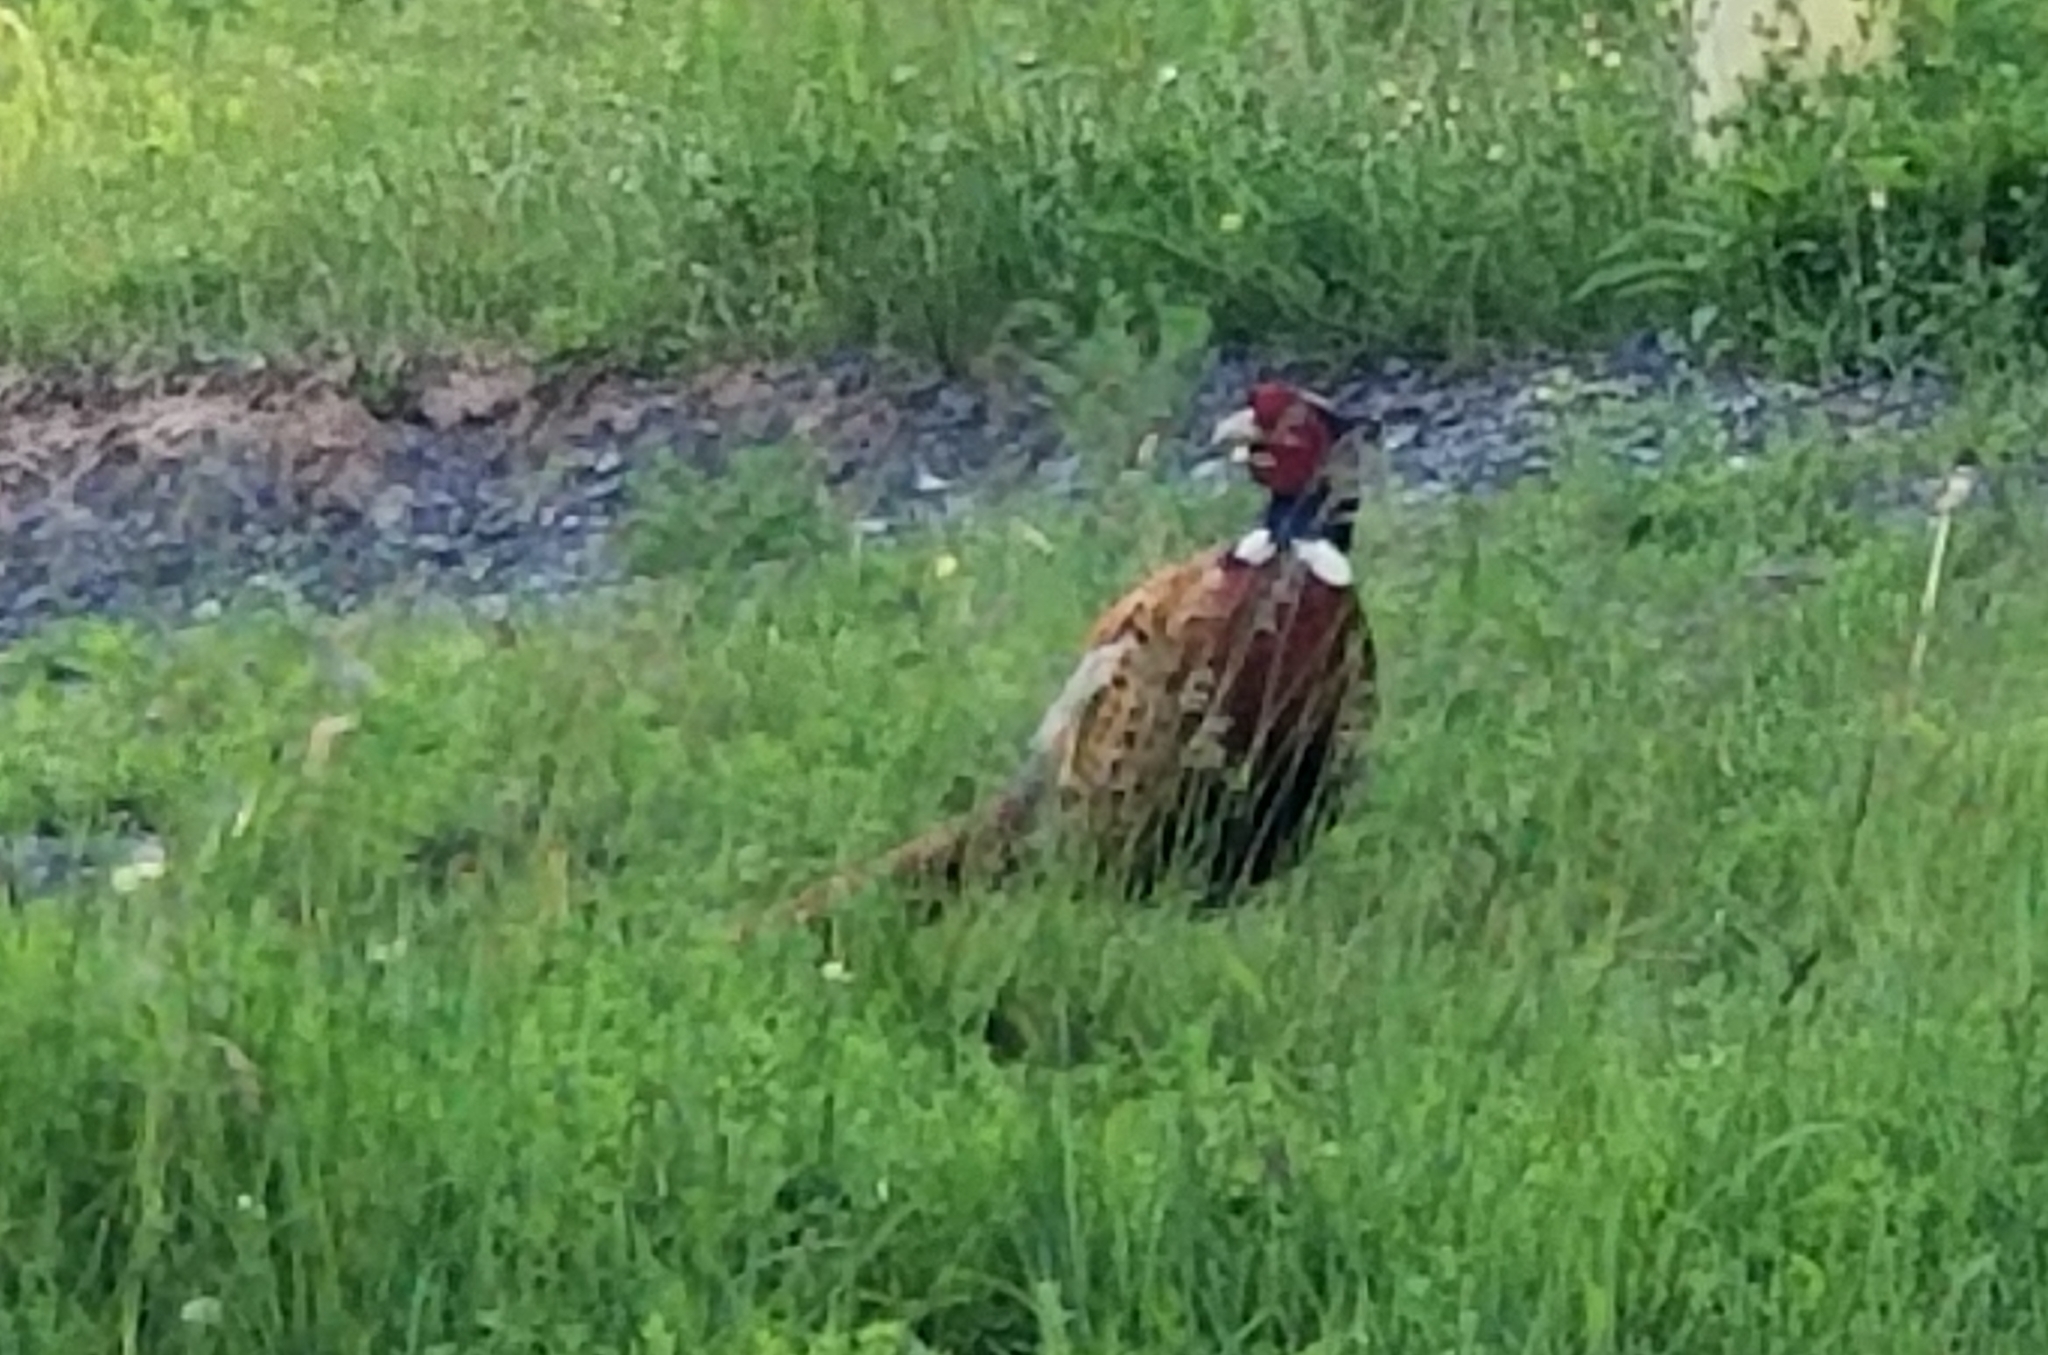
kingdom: Animalia
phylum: Chordata
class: Aves
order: Galliformes
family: Phasianidae
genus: Phasianus
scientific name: Phasianus colchicus
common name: Common pheasant
